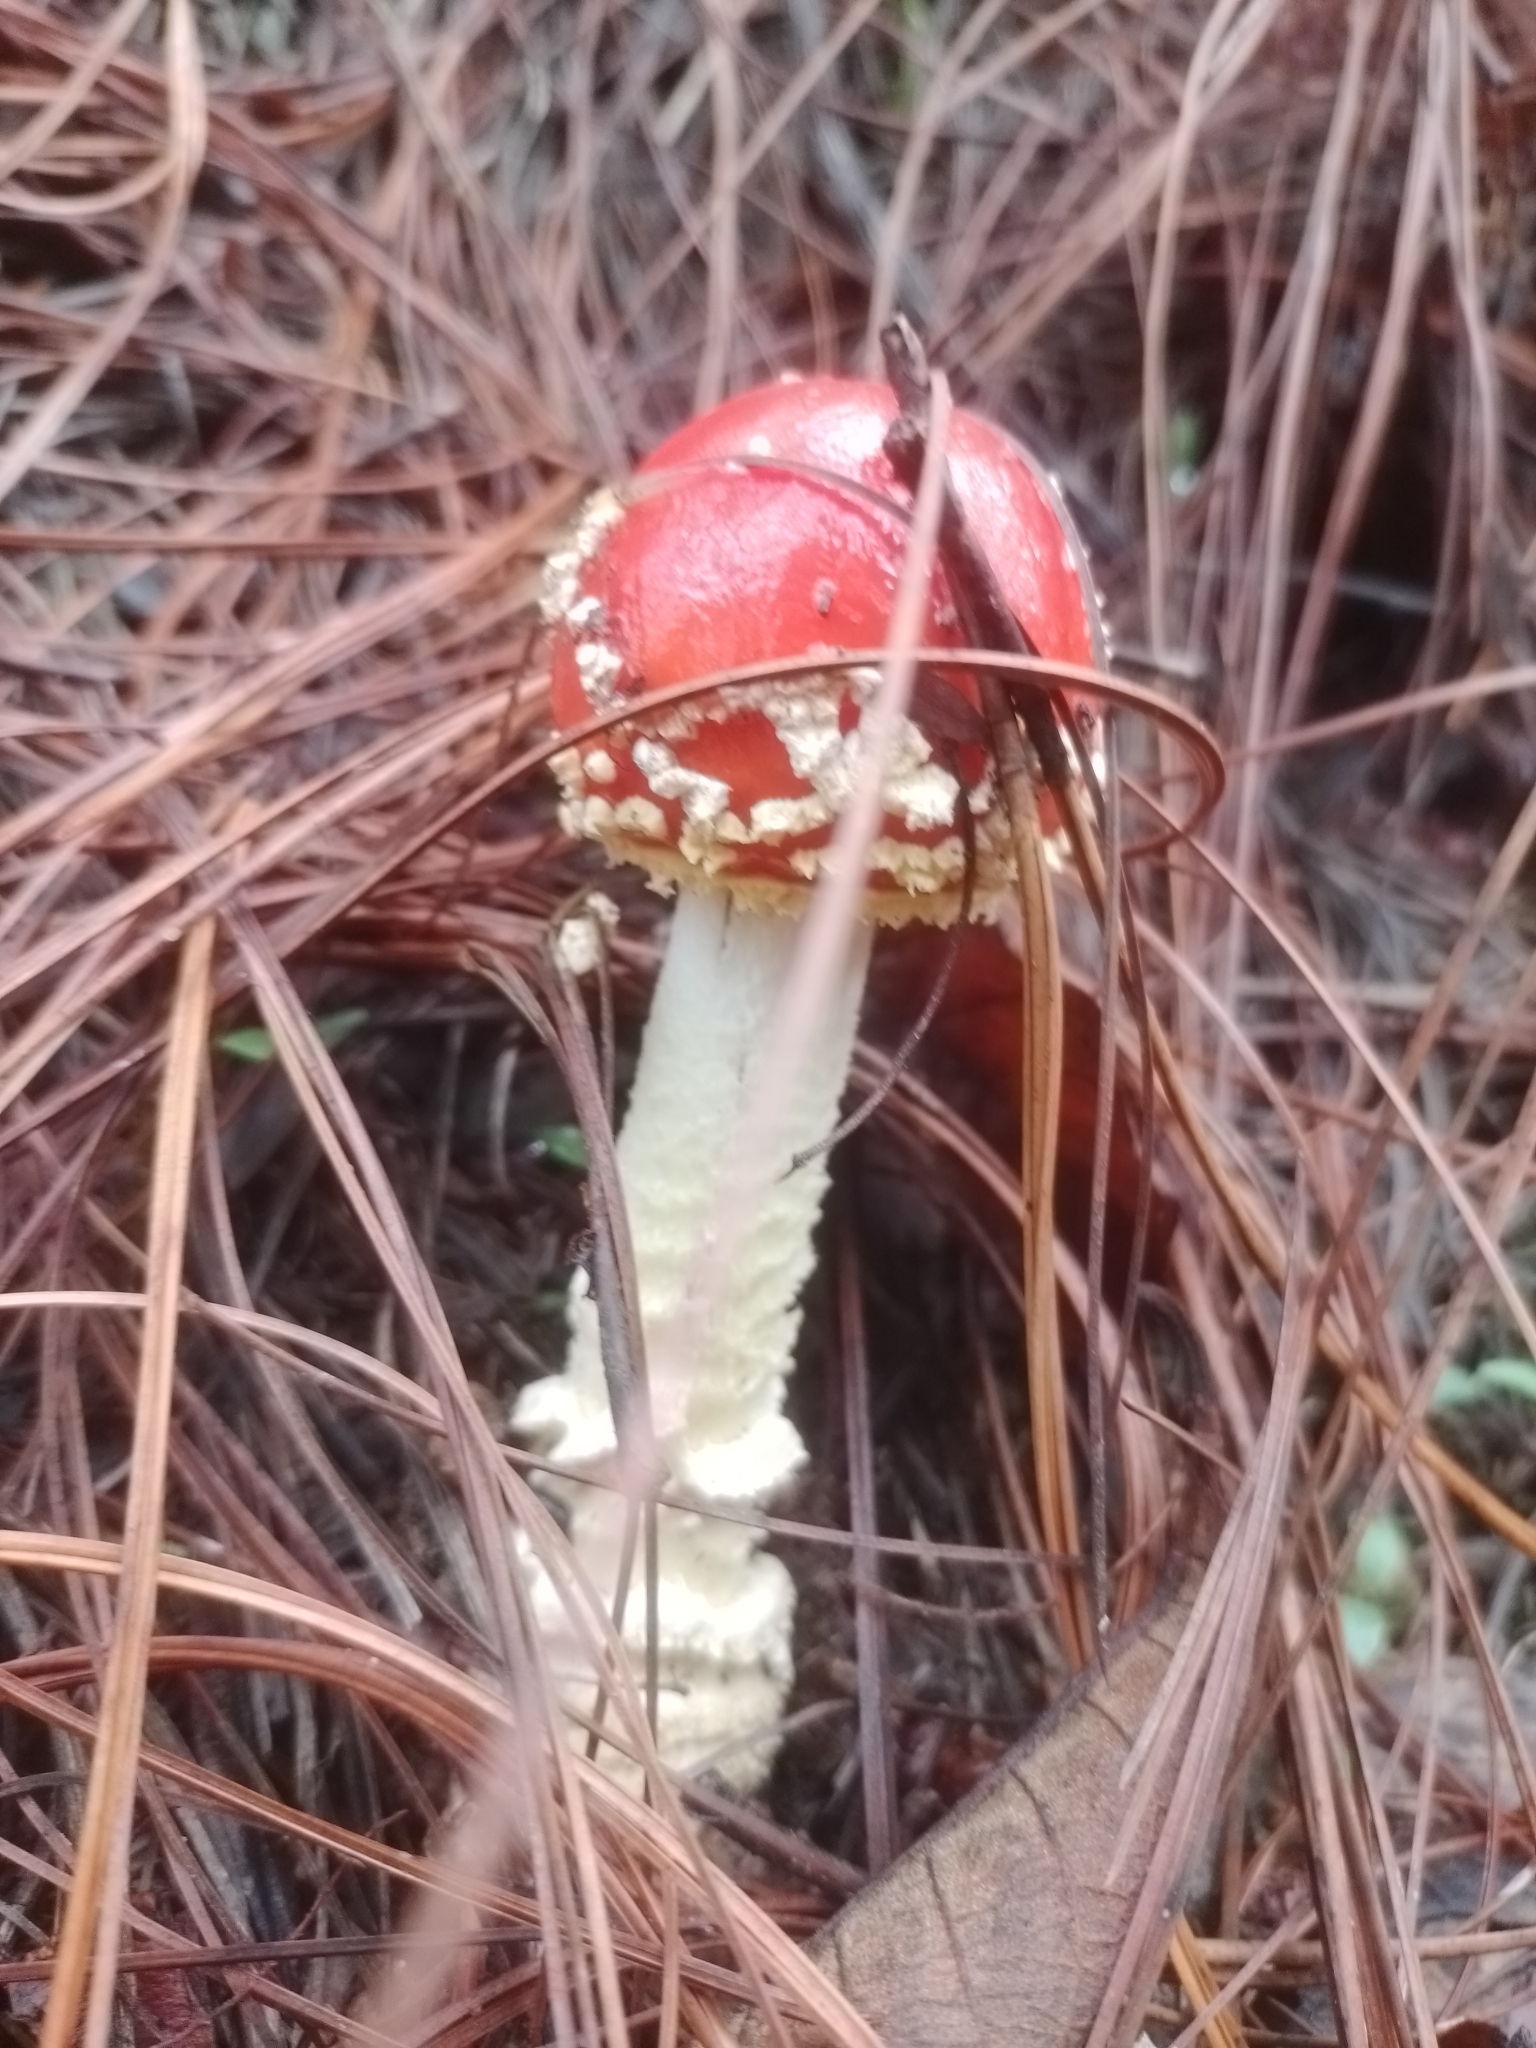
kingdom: Fungi
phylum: Basidiomycota
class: Agaricomycetes
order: Agaricales
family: Amanitaceae
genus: Amanita
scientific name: Amanita muscaria
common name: Fly agaric
